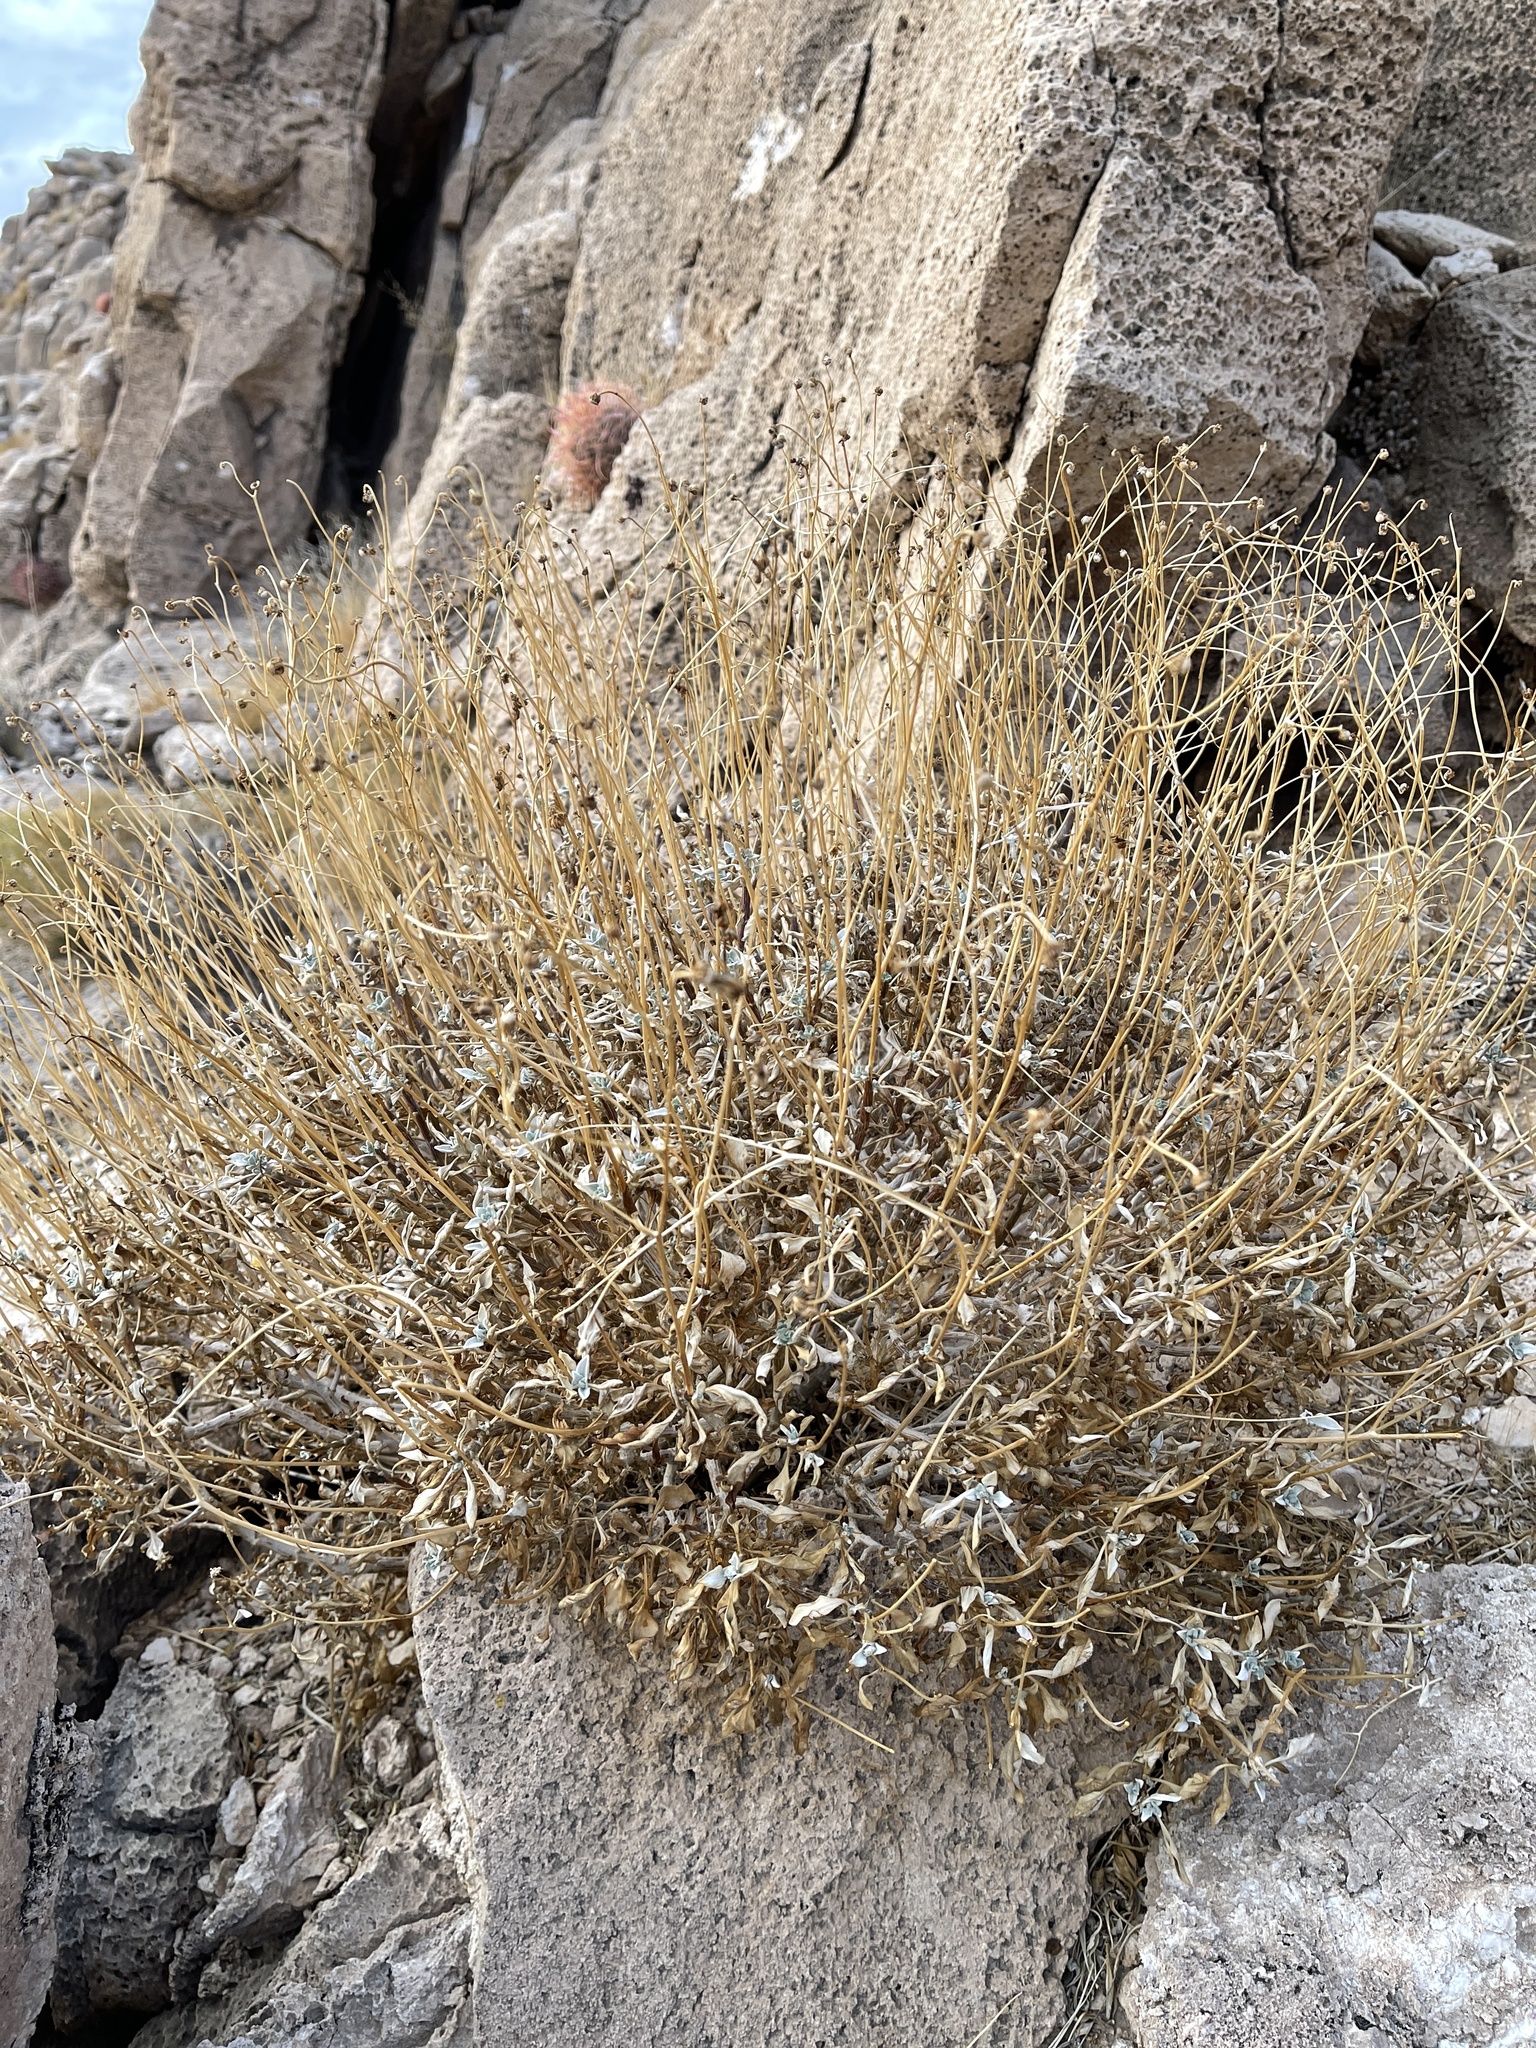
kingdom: Plantae
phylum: Tracheophyta
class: Magnoliopsida
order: Asterales
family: Asteraceae
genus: Encelia
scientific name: Encelia farinosa
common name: Brittlebush
